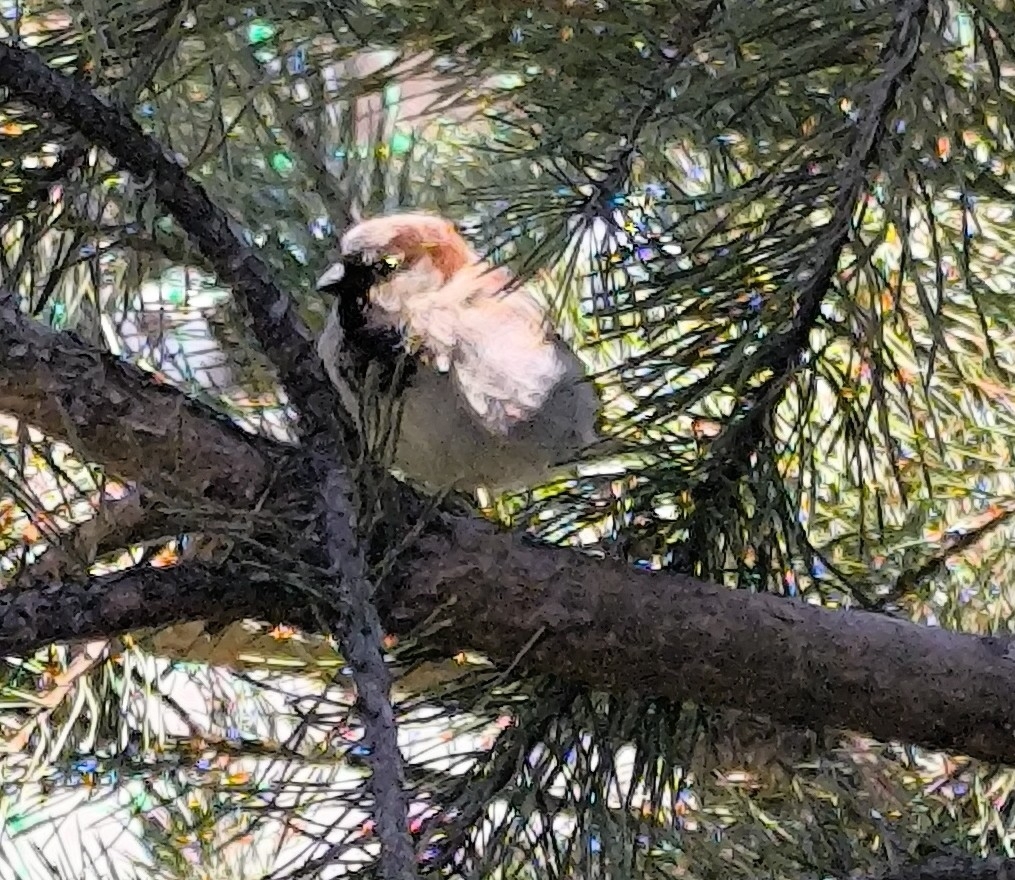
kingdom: Animalia
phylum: Chordata
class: Aves
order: Passeriformes
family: Passeridae
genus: Passer
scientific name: Passer domesticus
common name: House sparrow
